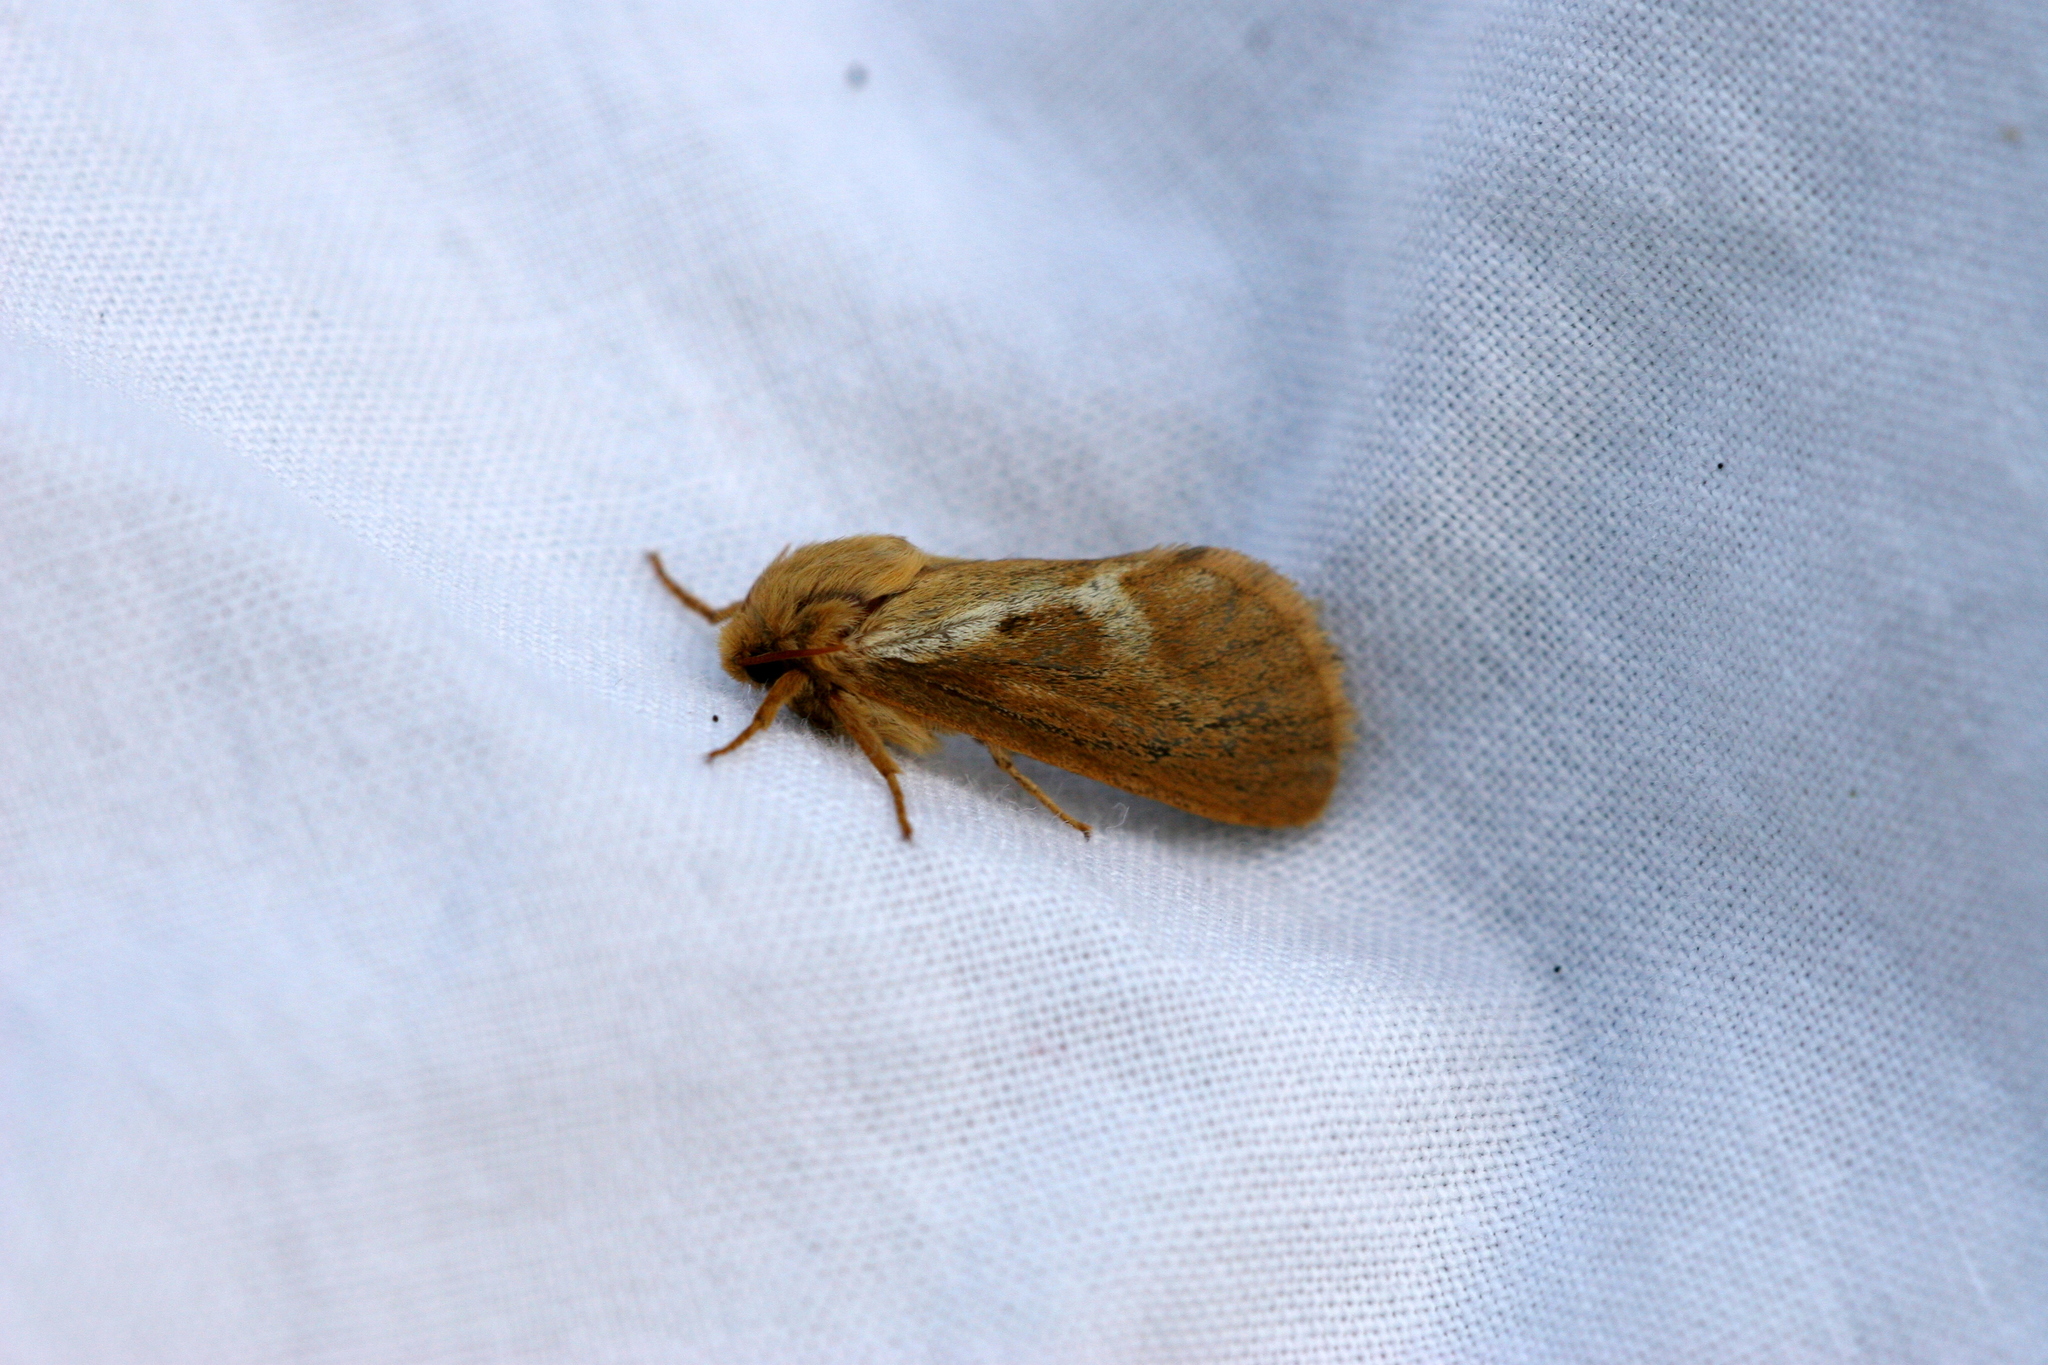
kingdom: Animalia
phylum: Arthropoda
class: Insecta
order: Lepidoptera
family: Hepialidae
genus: Korscheltellus
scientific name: Korscheltellus lupulina
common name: Common swift
